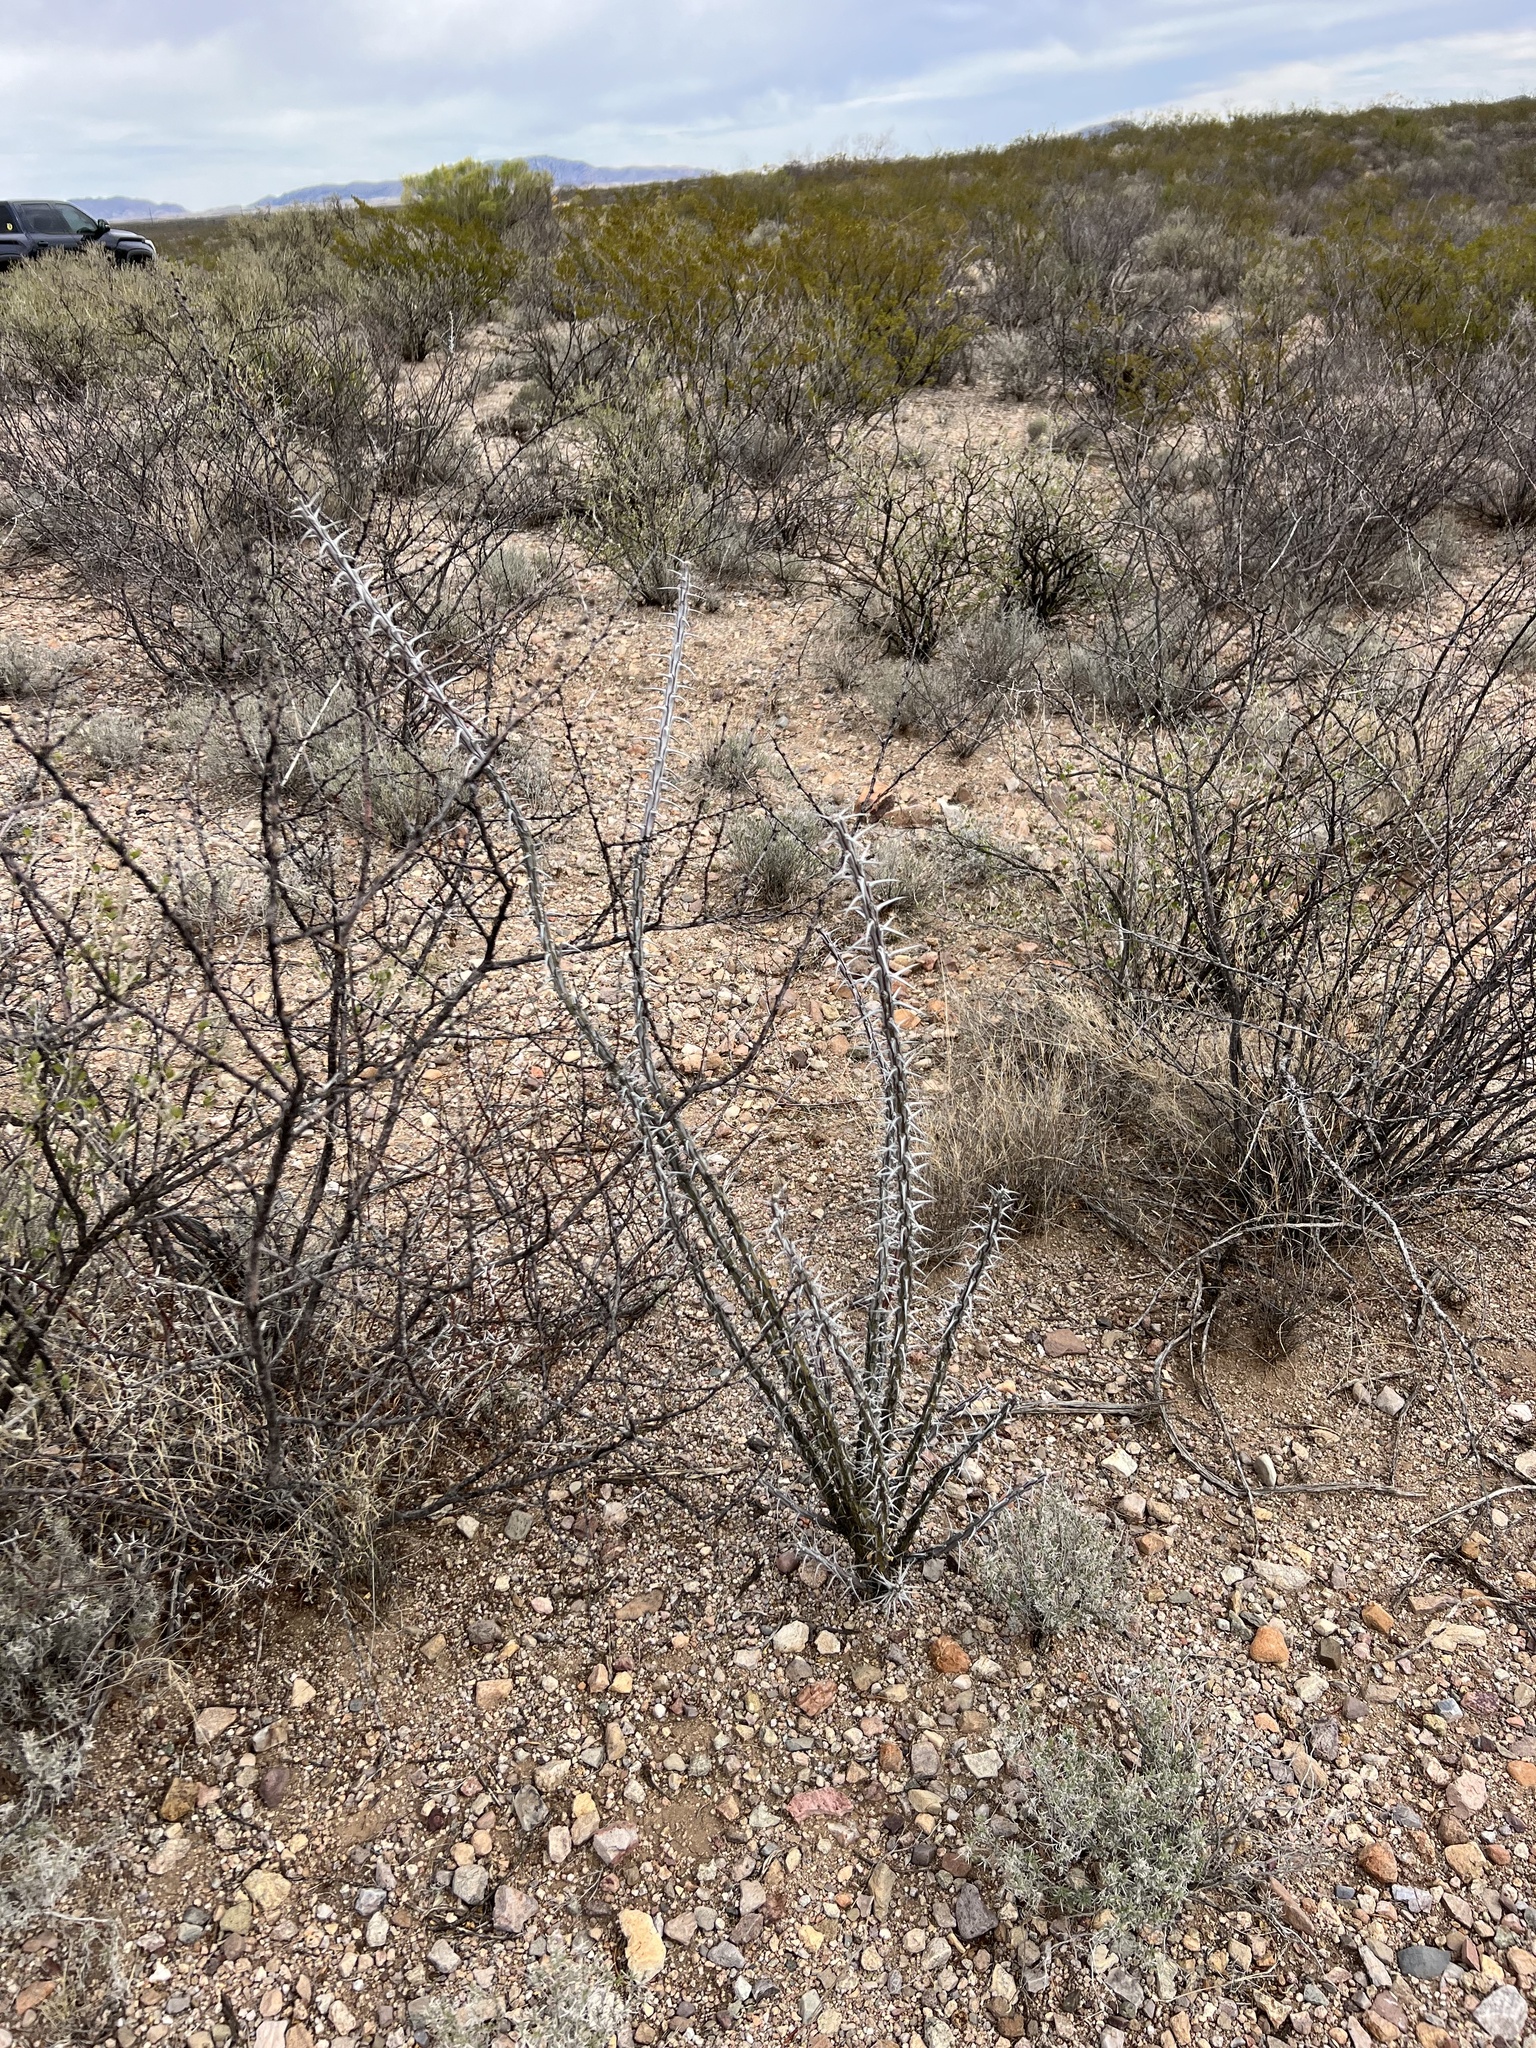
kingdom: Plantae
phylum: Tracheophyta
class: Magnoliopsida
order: Ericales
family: Fouquieriaceae
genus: Fouquieria
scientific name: Fouquieria splendens
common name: Vine-cactus
